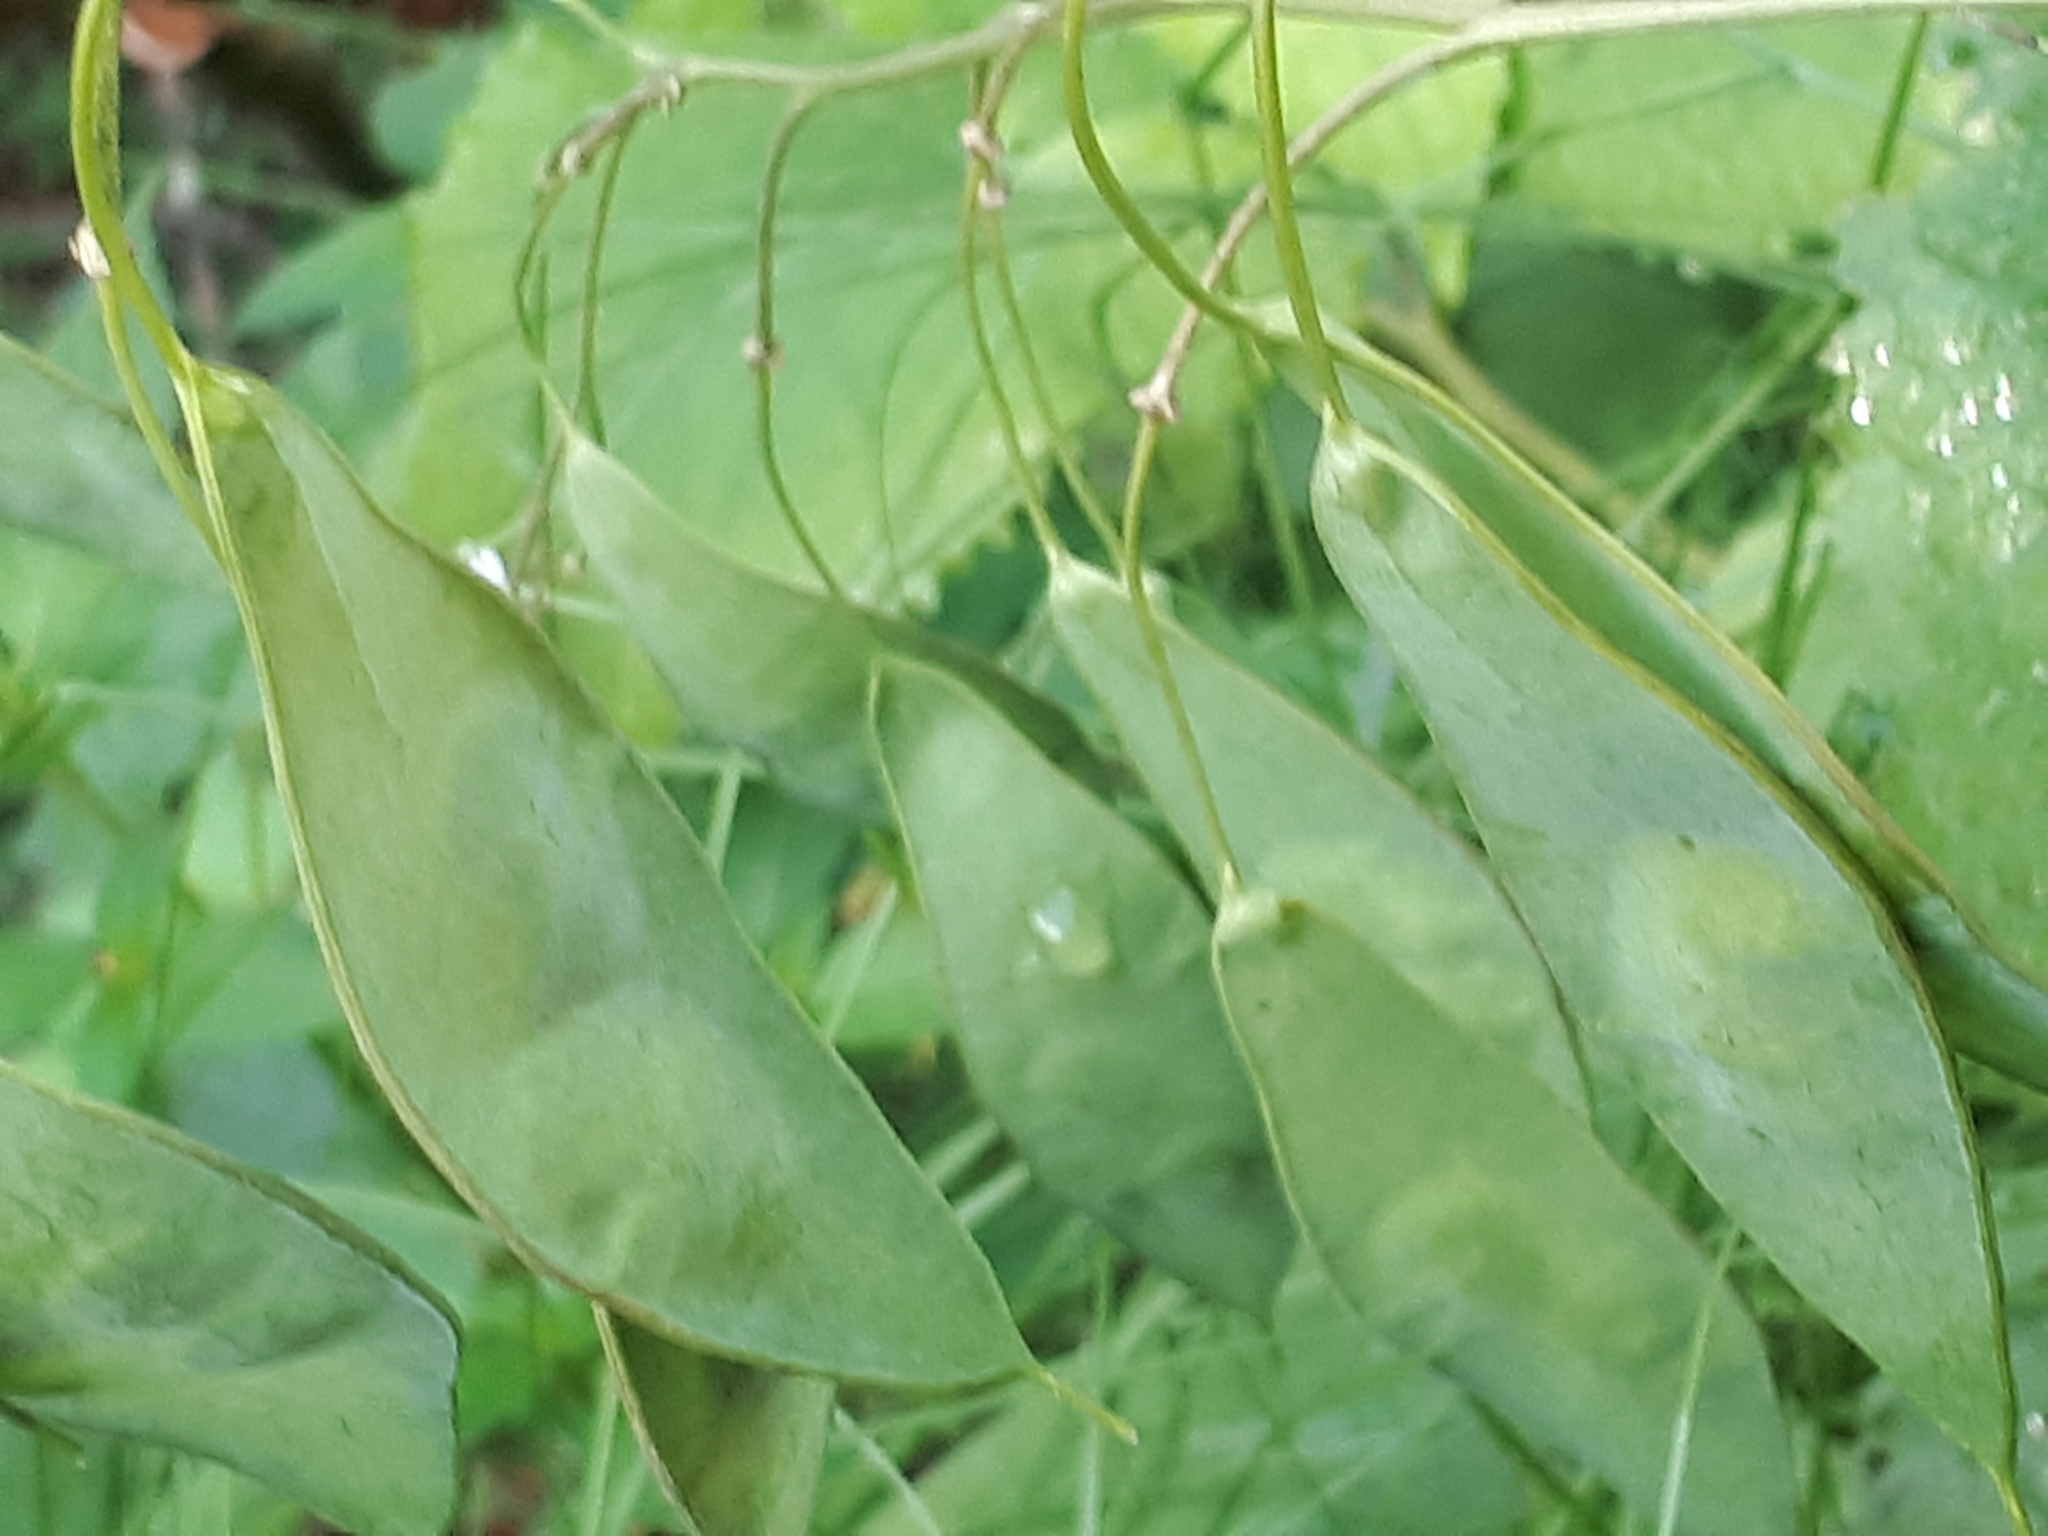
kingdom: Plantae
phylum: Tracheophyta
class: Magnoliopsida
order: Brassicales
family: Brassicaceae
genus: Lunaria
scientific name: Lunaria rediviva
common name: Perennial honesty
